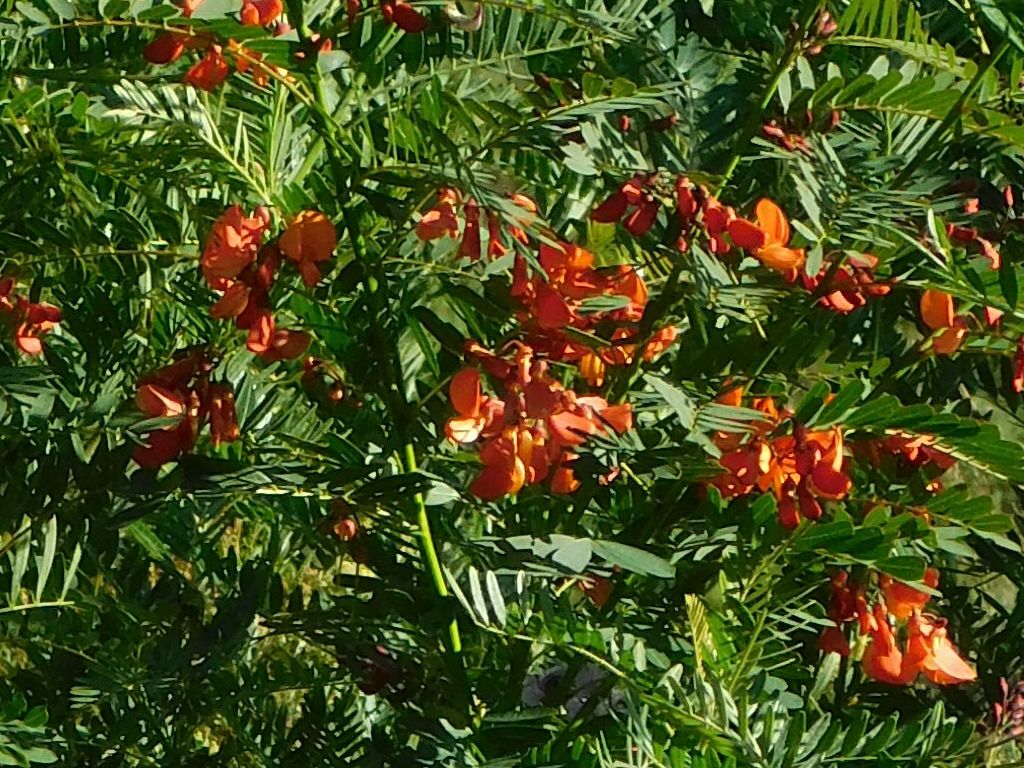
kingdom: Plantae
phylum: Tracheophyta
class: Magnoliopsida
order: Fabales
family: Fabaceae
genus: Sesbania
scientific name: Sesbania punicea
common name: Rattlebox
